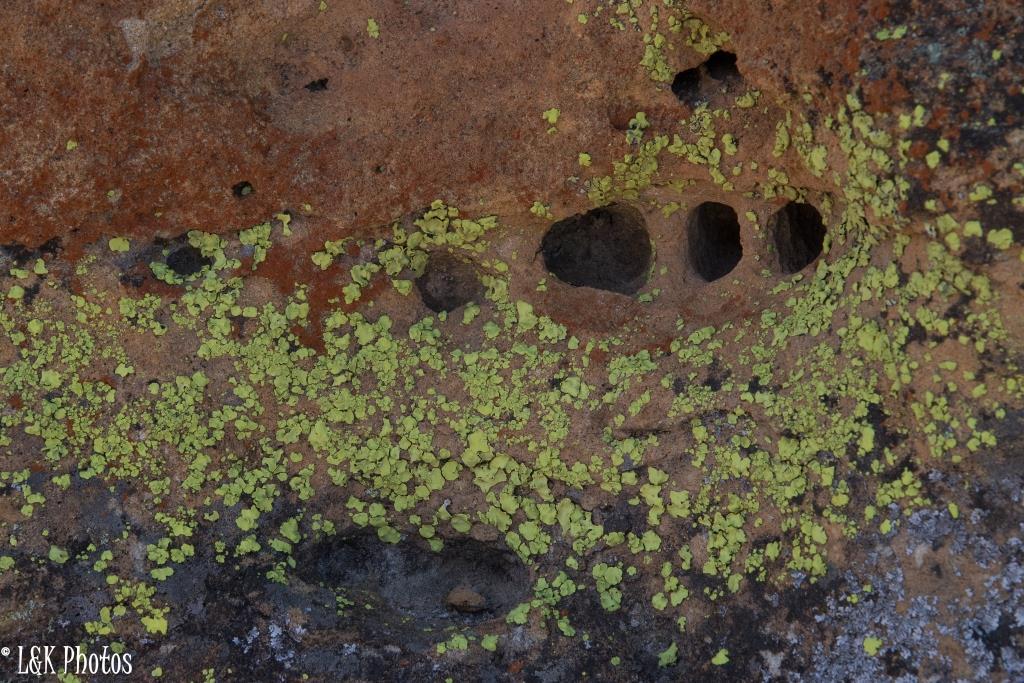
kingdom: Fungi
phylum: Ascomycota
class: Lecanoromycetes
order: Caliciales
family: Caliciaceae
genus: Dermatiscum
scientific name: Dermatiscum thunbergii
